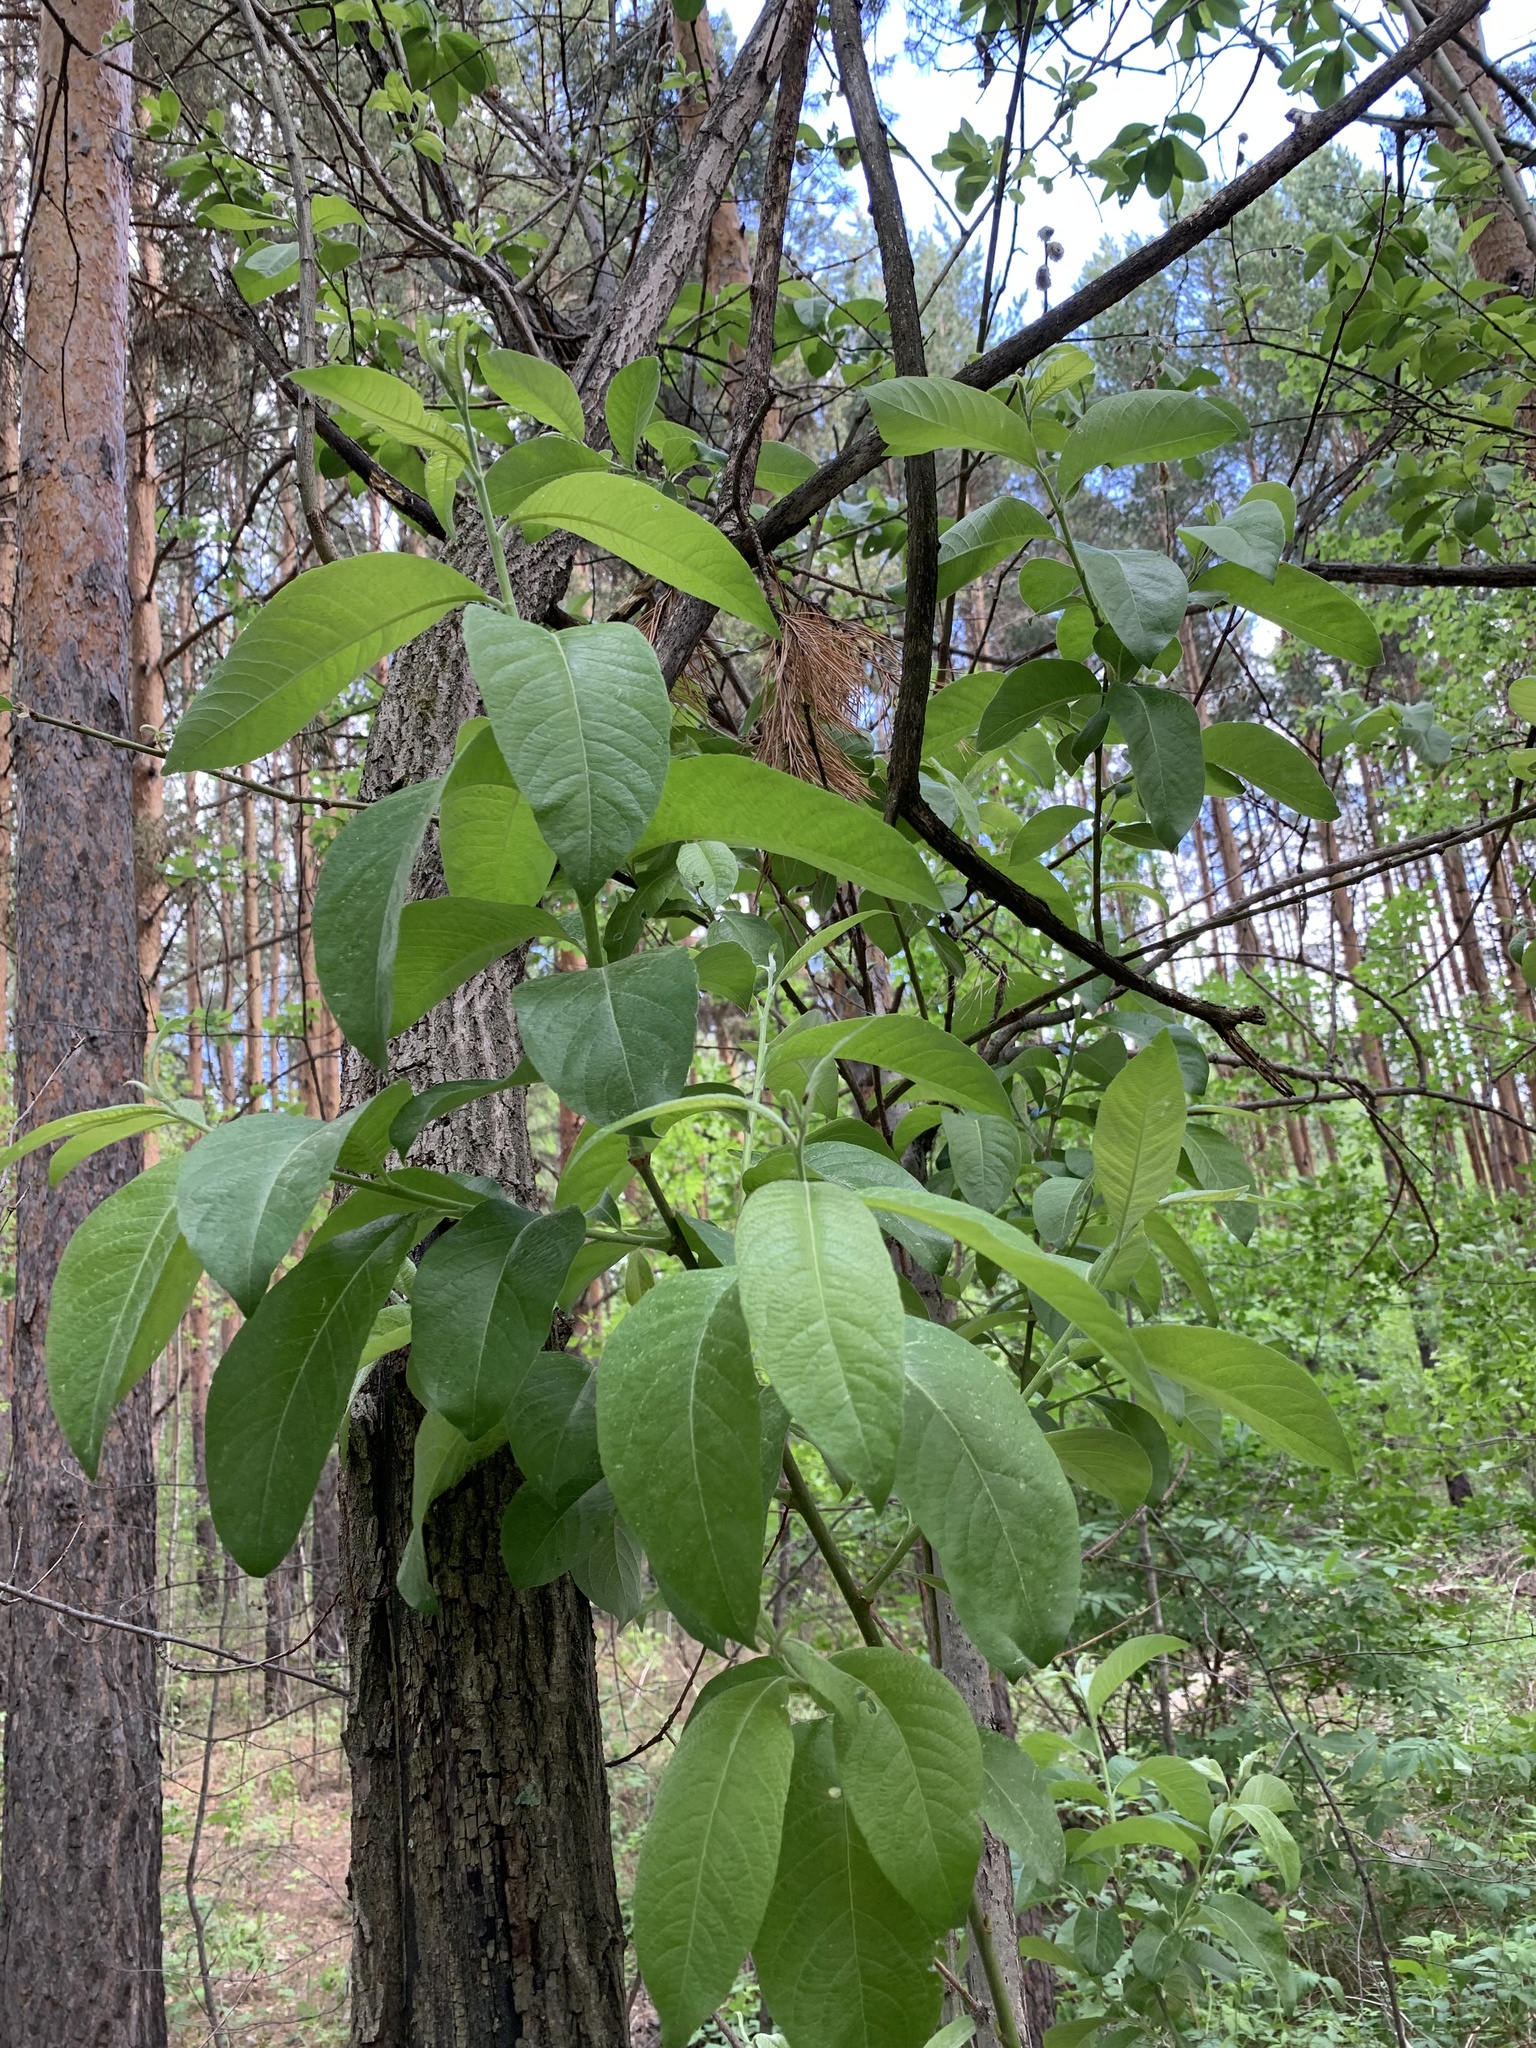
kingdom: Plantae
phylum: Tracheophyta
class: Magnoliopsida
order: Malpighiales
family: Salicaceae
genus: Salix
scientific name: Salix caprea
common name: Goat willow
